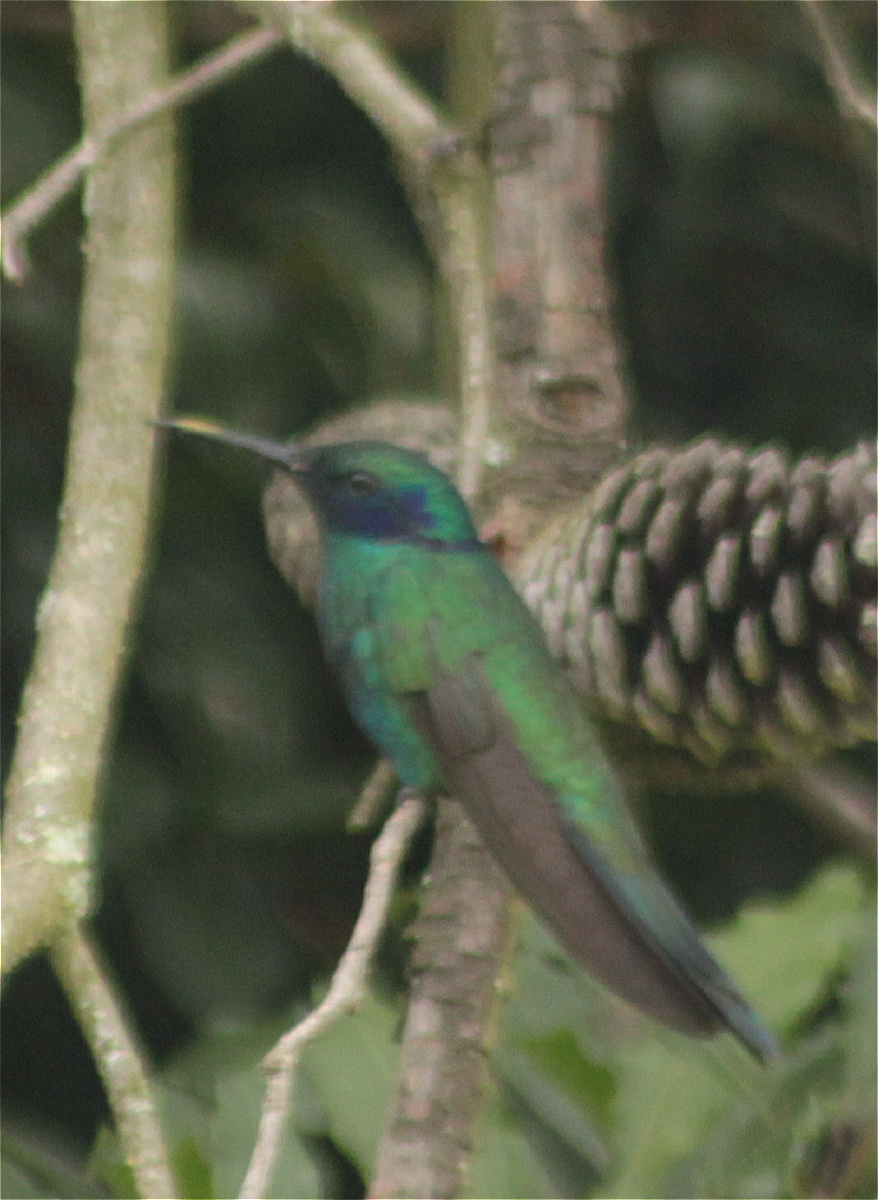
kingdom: Animalia
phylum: Chordata
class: Aves
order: Apodiformes
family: Trochilidae
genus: Colibri
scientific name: Colibri coruscans
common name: Sparkling violetear
